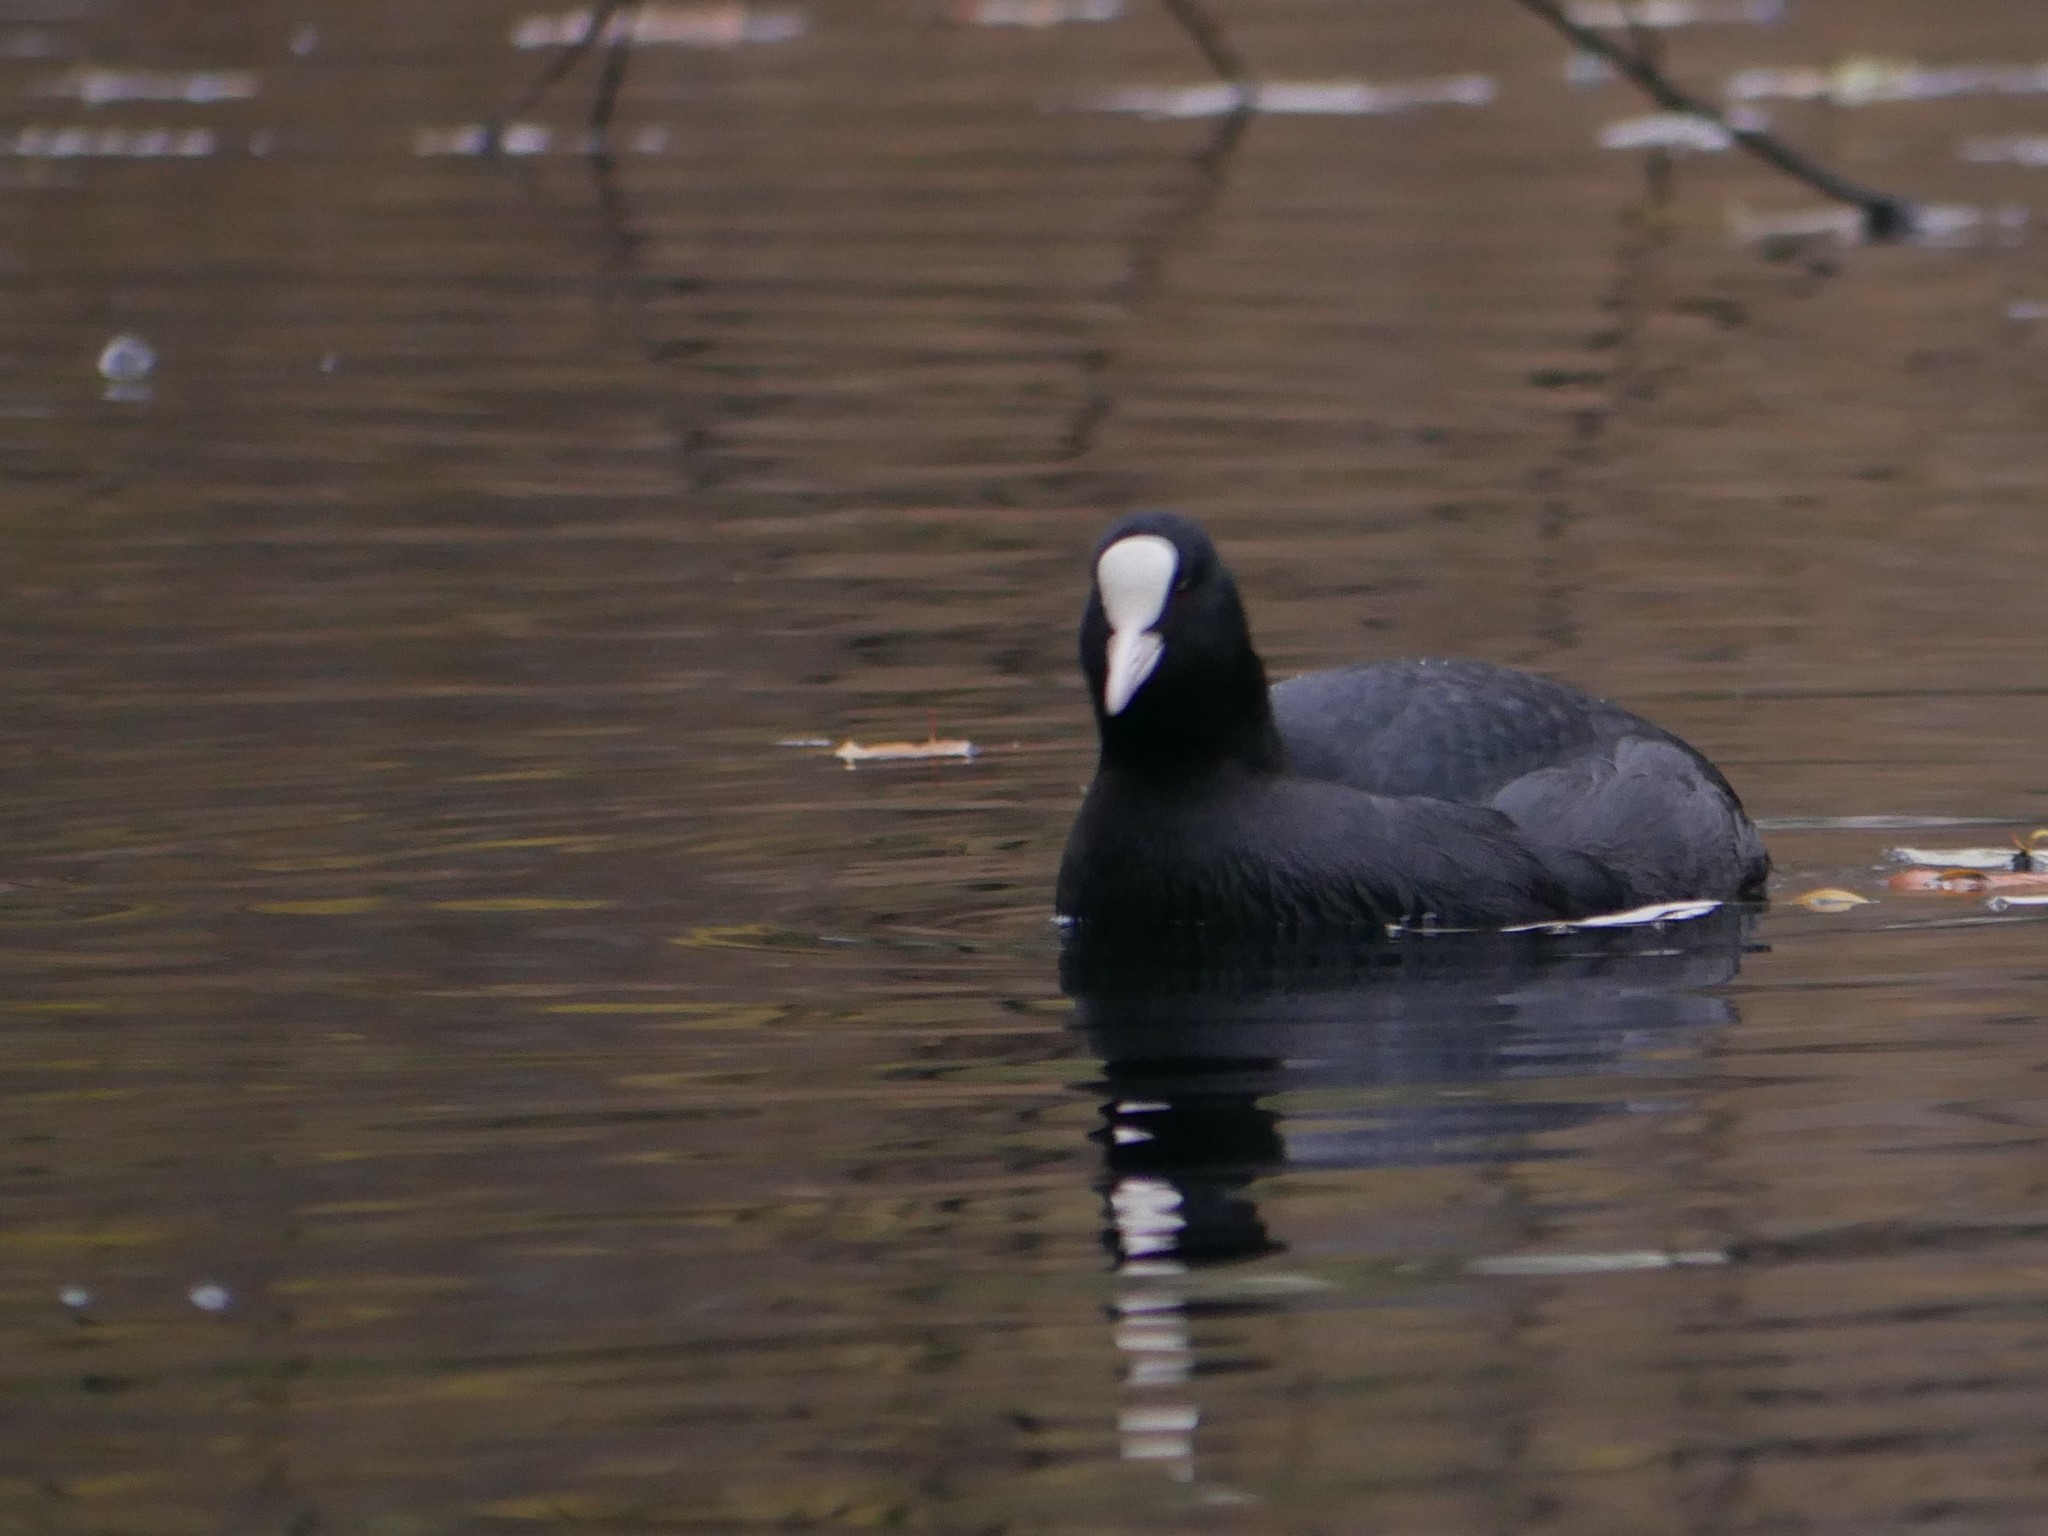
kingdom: Animalia
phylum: Chordata
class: Aves
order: Gruiformes
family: Rallidae
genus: Fulica
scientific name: Fulica atra
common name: Eurasian coot
